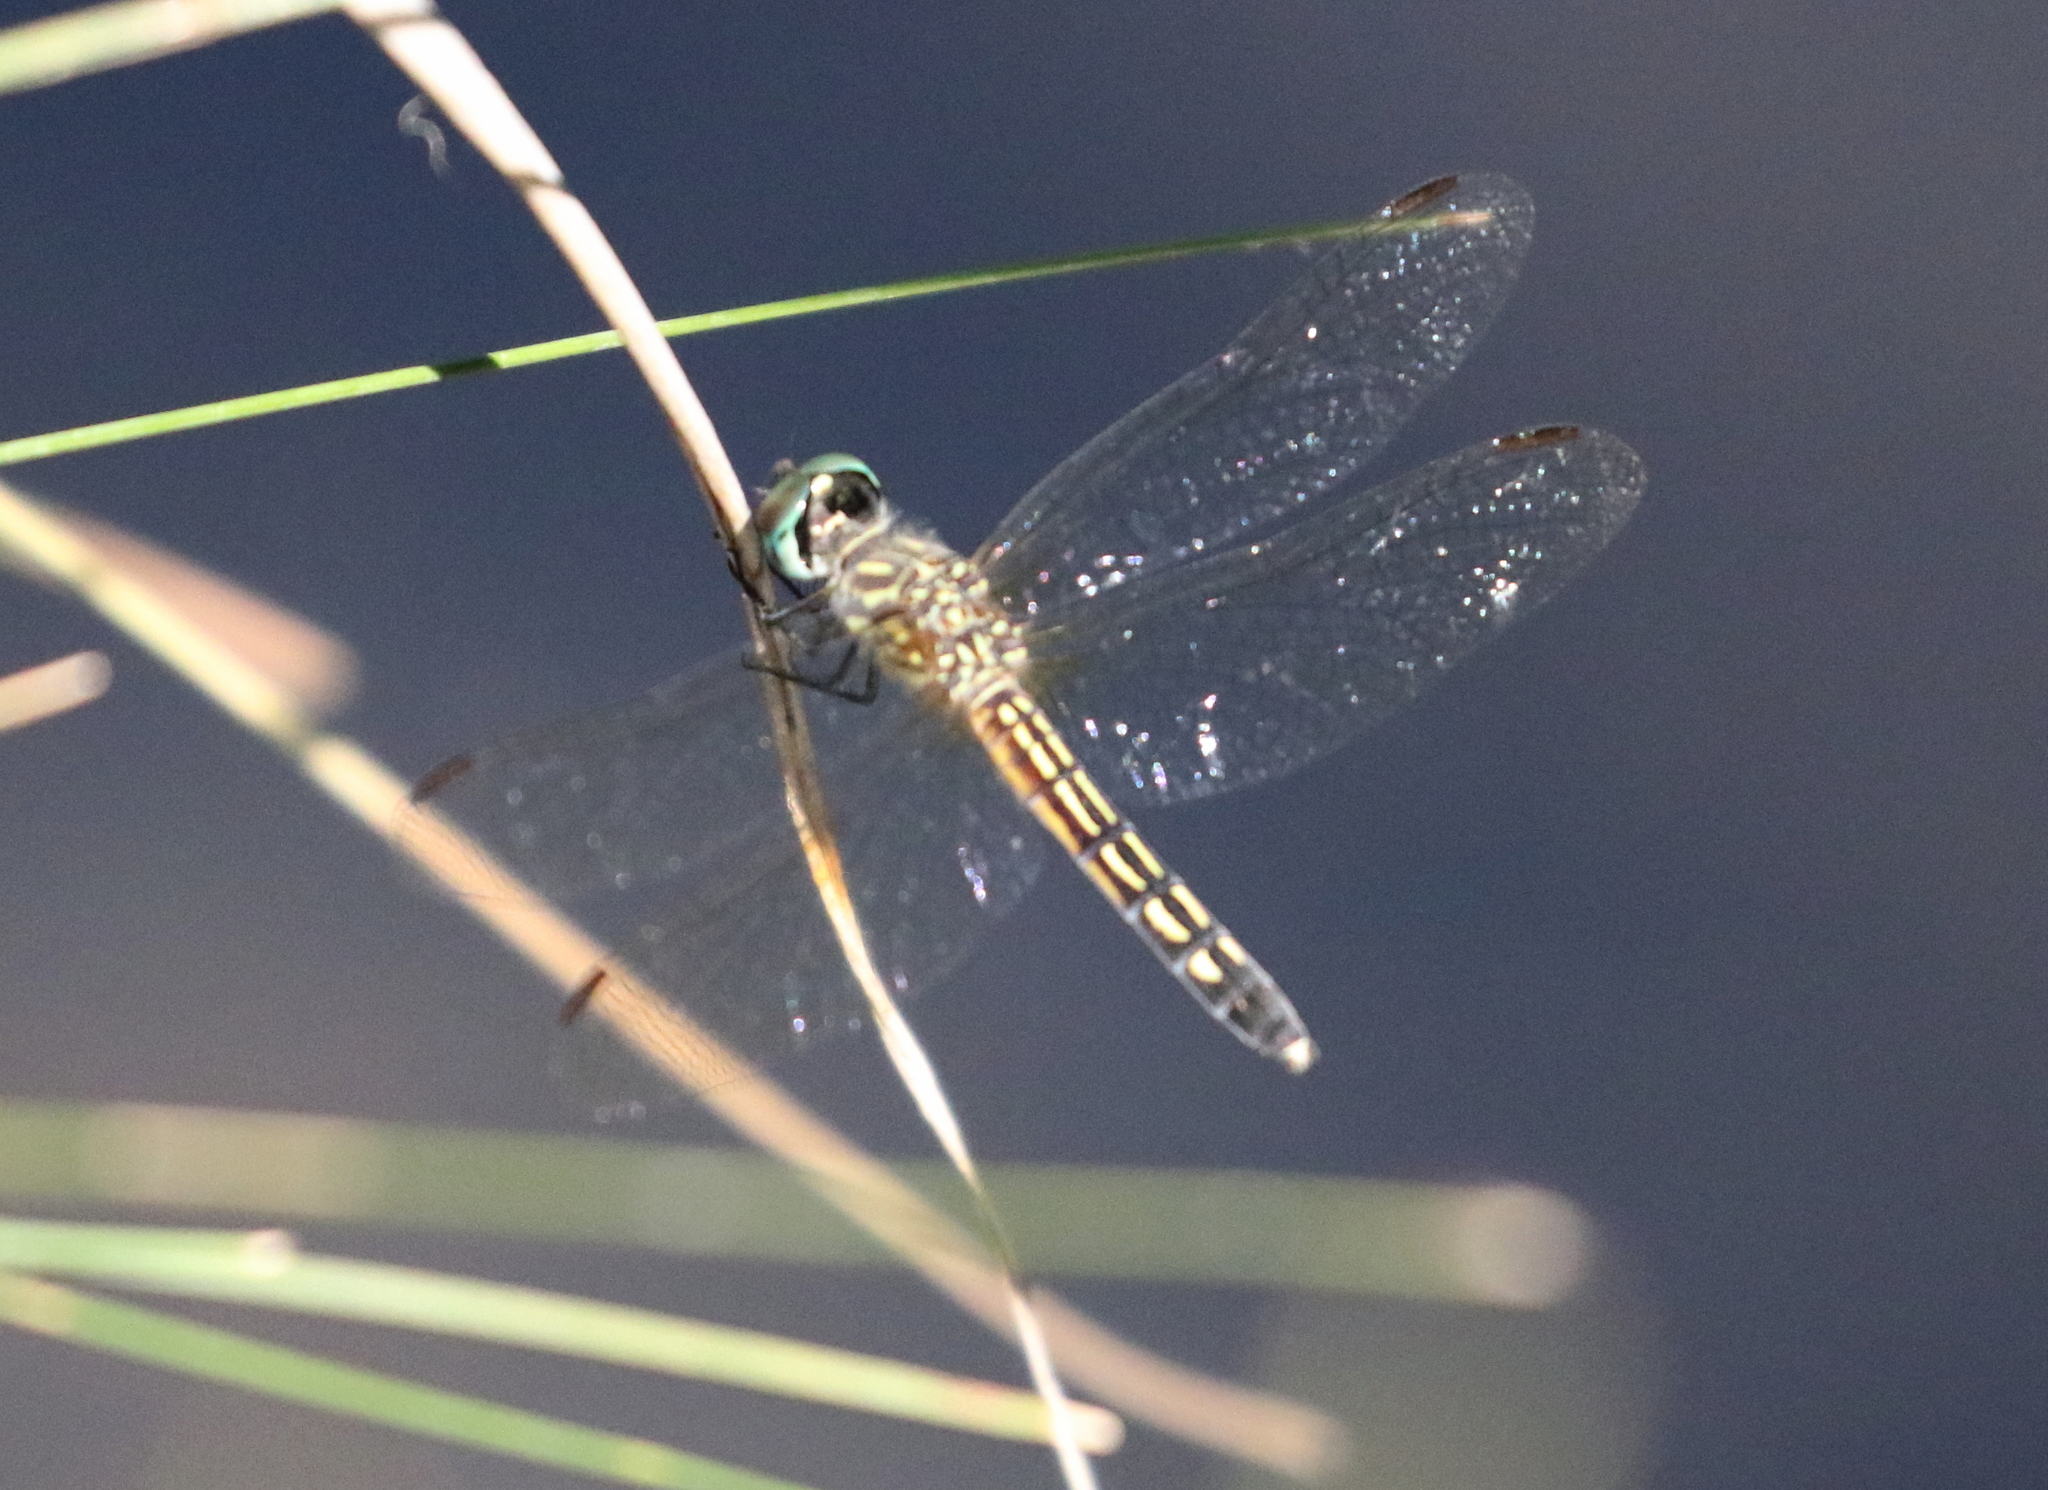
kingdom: Animalia
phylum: Arthropoda
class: Insecta
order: Odonata
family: Libellulidae
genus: Pachydiplax
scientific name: Pachydiplax longipennis
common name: Blue dasher
